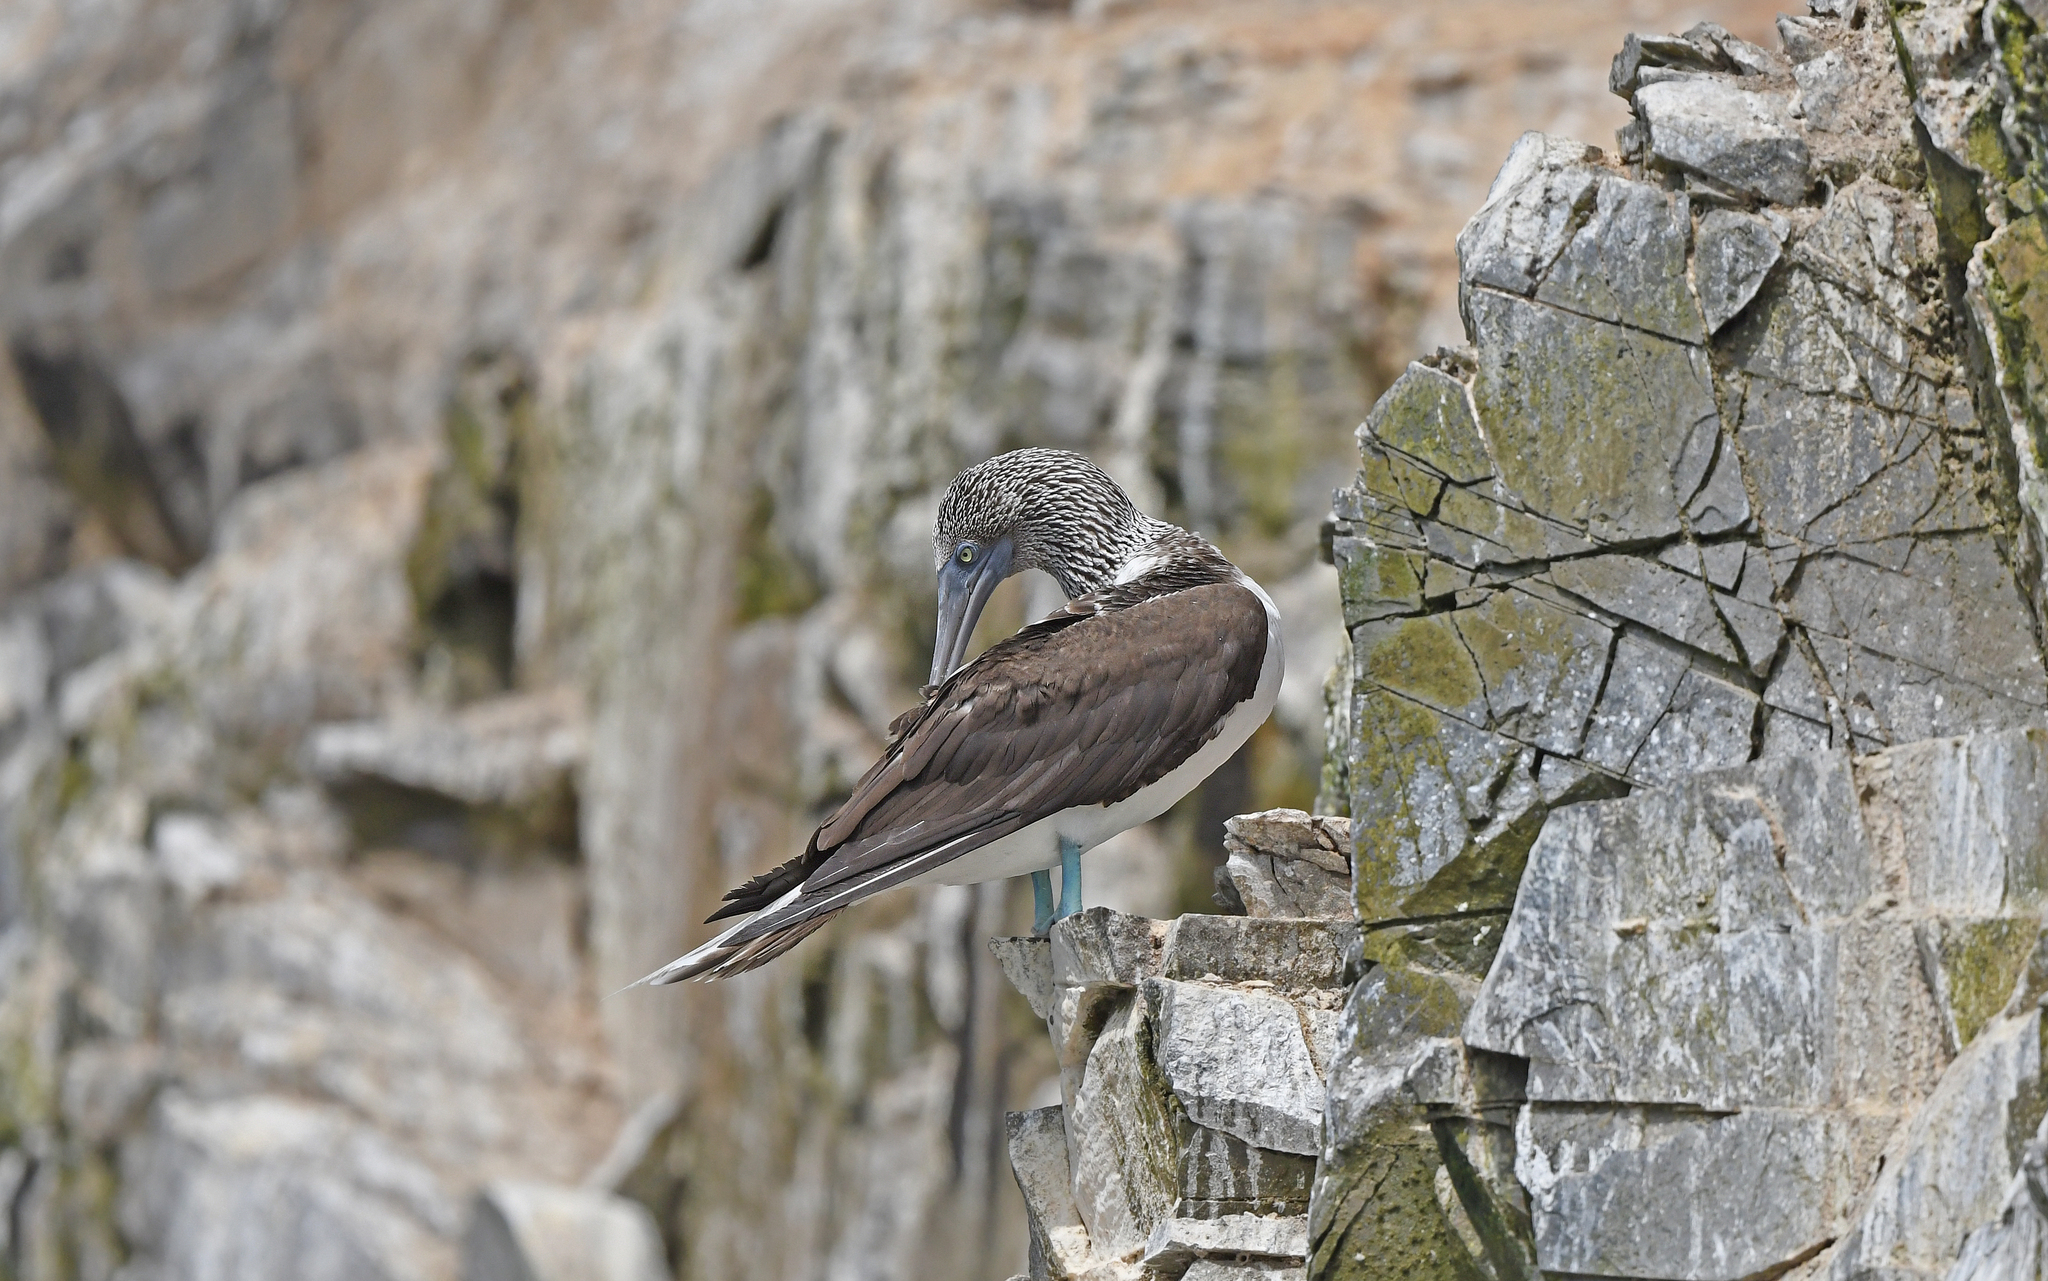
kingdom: Animalia
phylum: Chordata
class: Aves
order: Suliformes
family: Sulidae
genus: Sula
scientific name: Sula nebouxii
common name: Blue-footed booby
